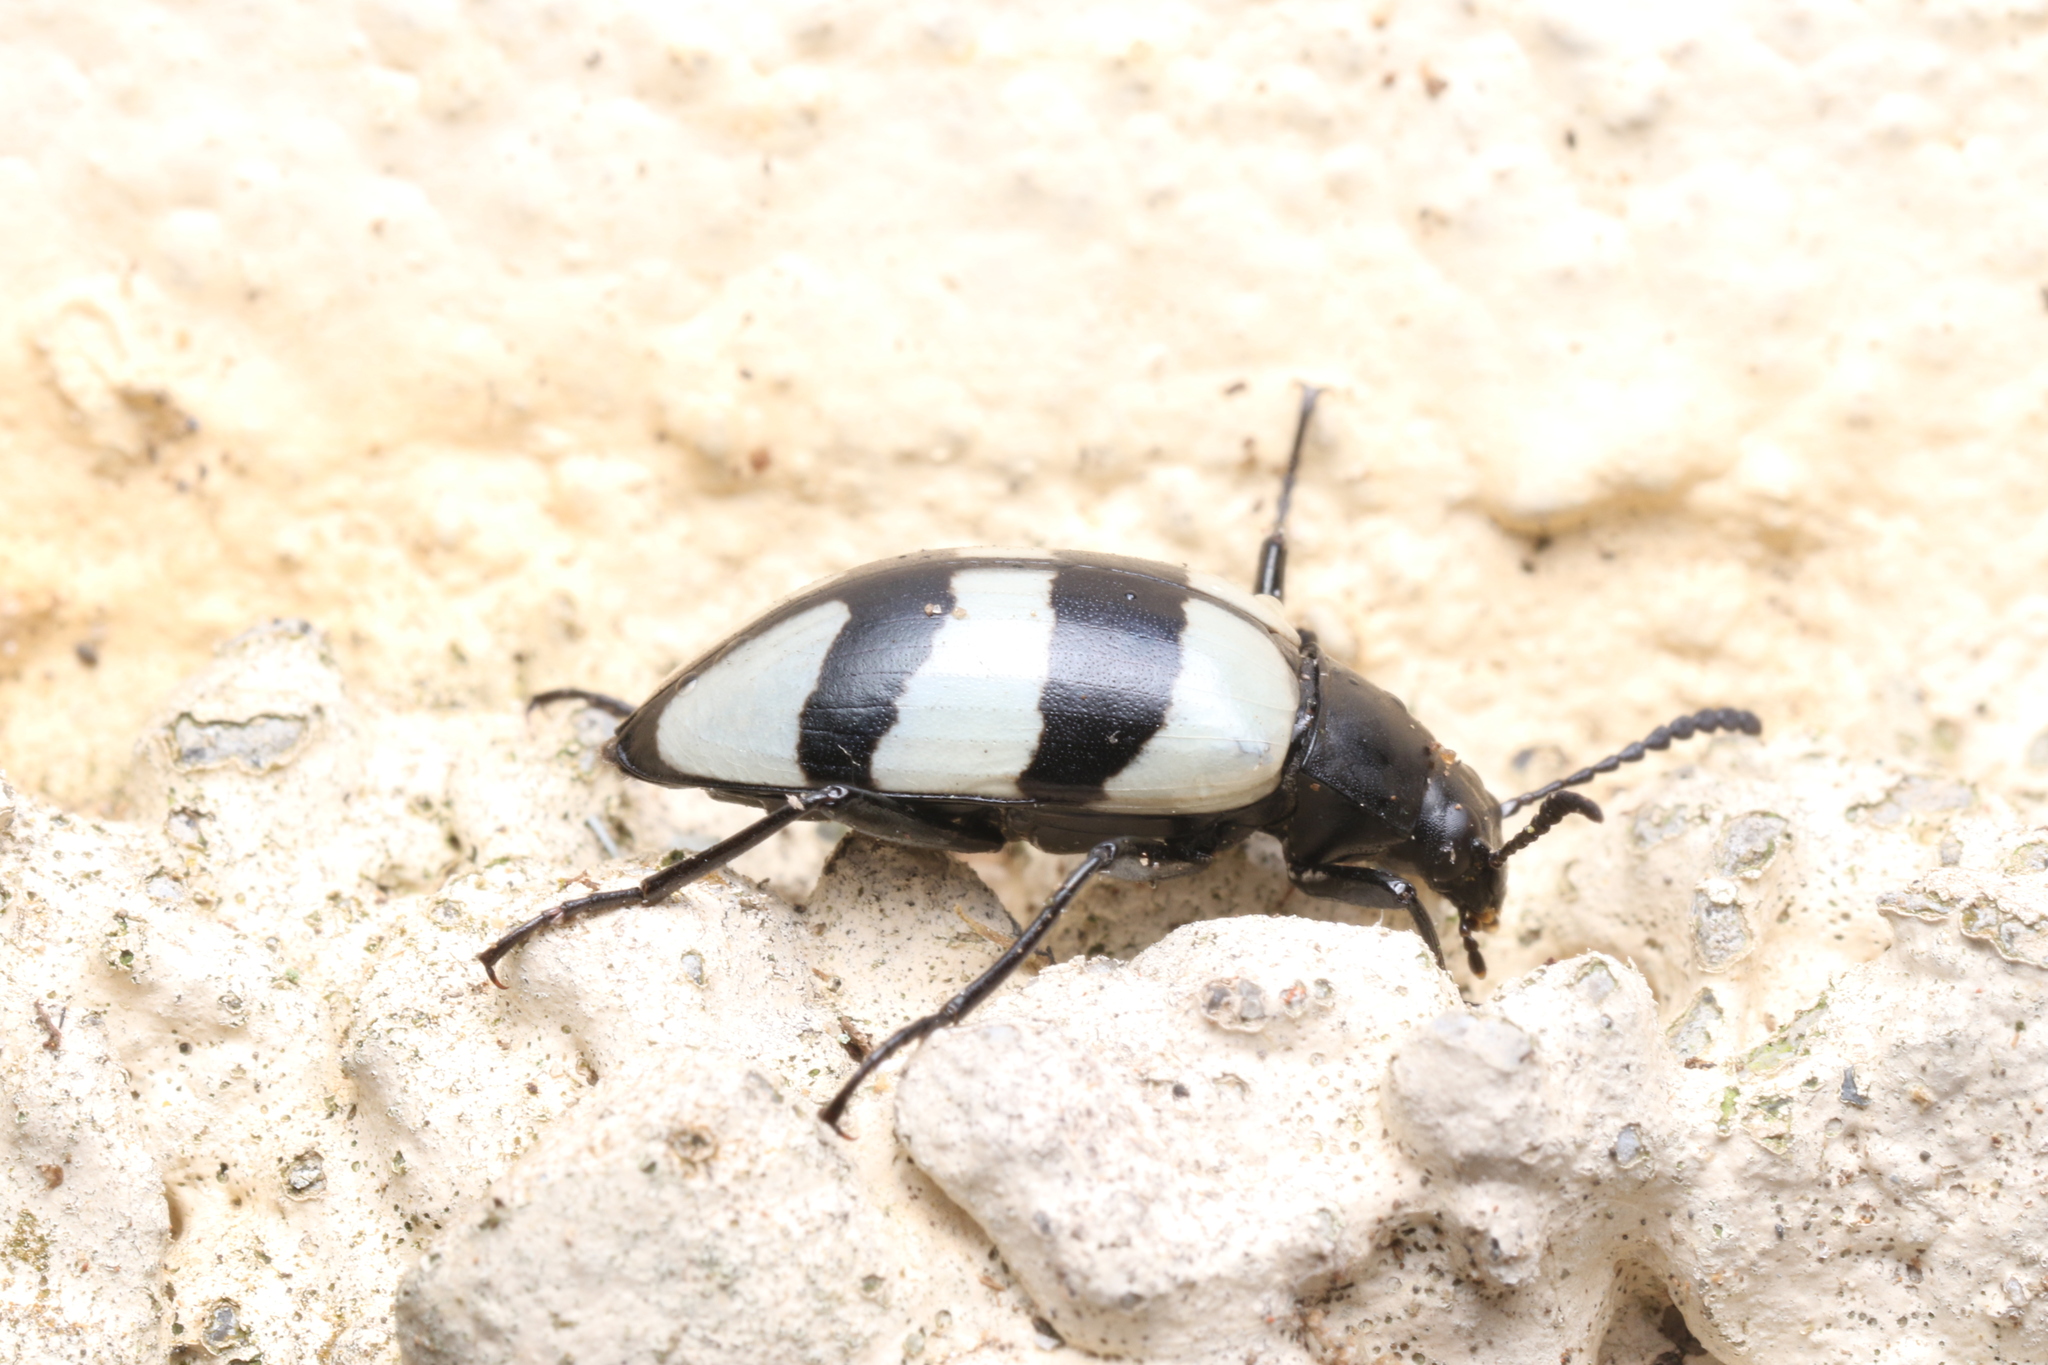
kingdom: Animalia
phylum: Arthropoda
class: Insecta
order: Coleoptera
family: Tenebrionidae
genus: Poecilesthus
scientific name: Poecilesthus
